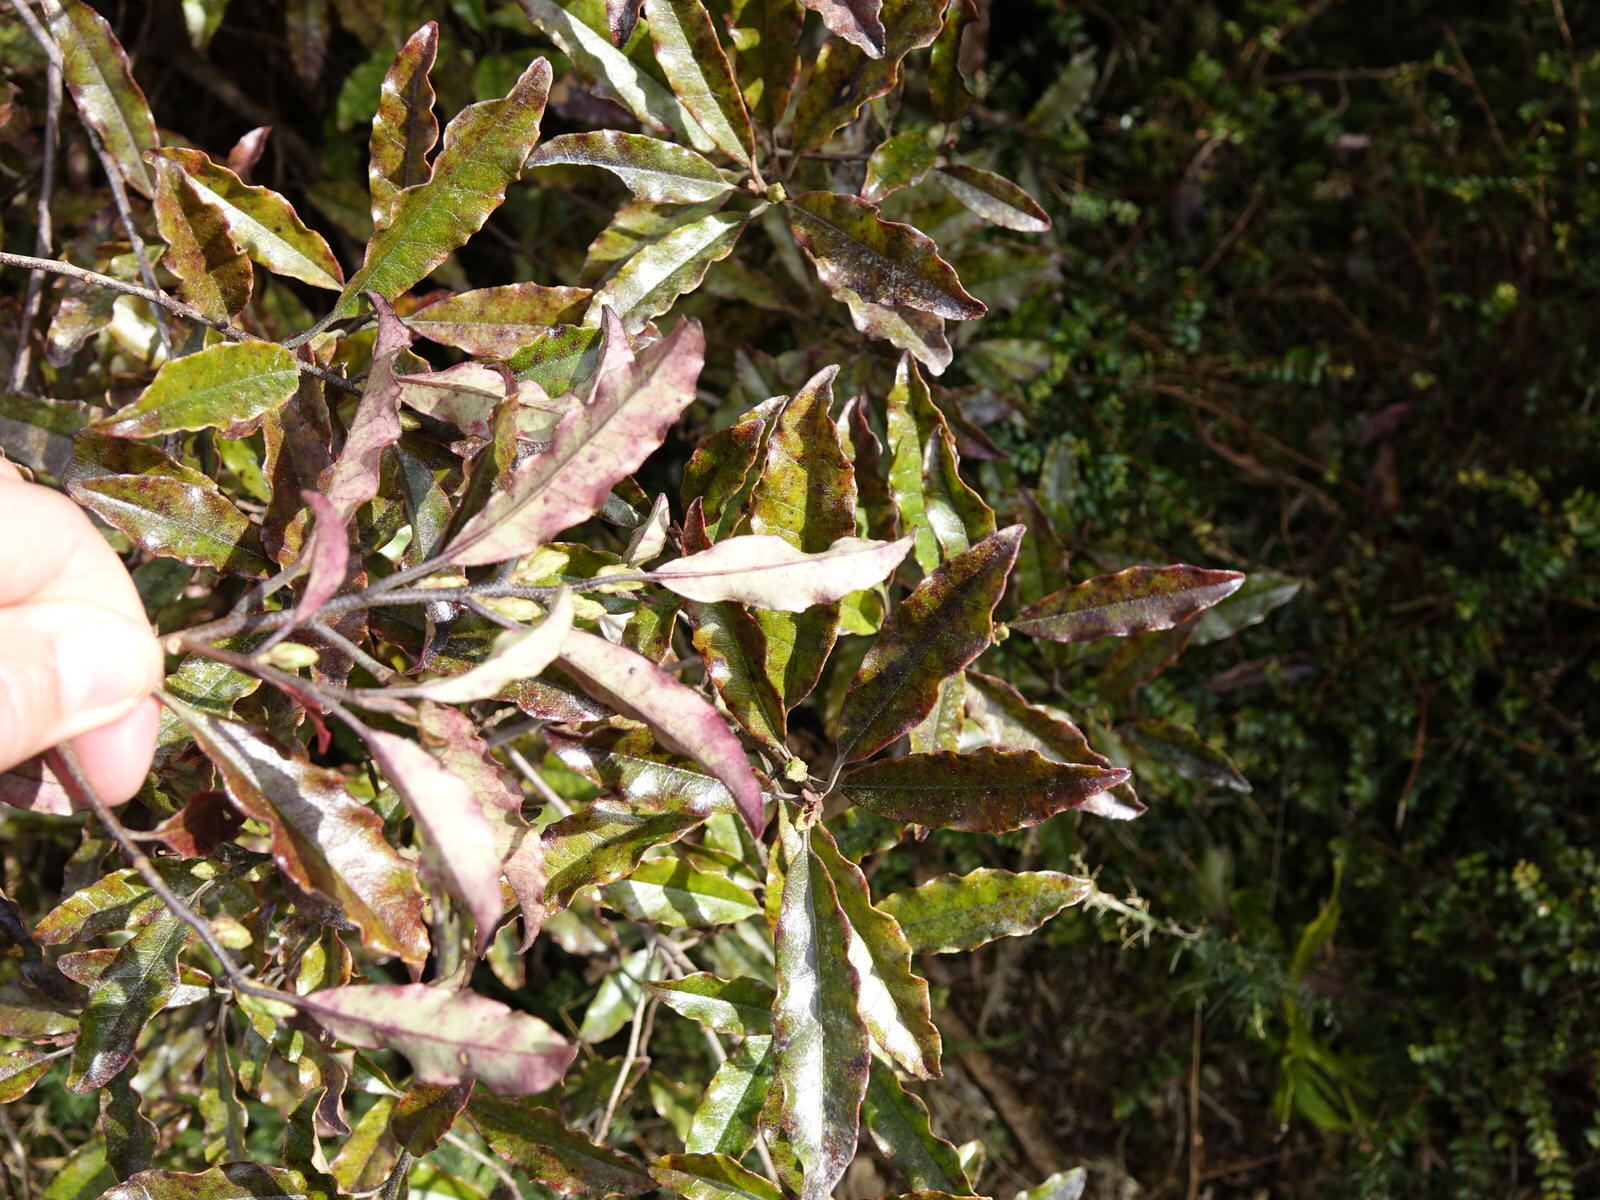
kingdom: Plantae
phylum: Tracheophyta
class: Magnoliopsida
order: Paracryphiales
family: Paracryphiaceae
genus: Quintinia
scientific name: Quintinia serrata
